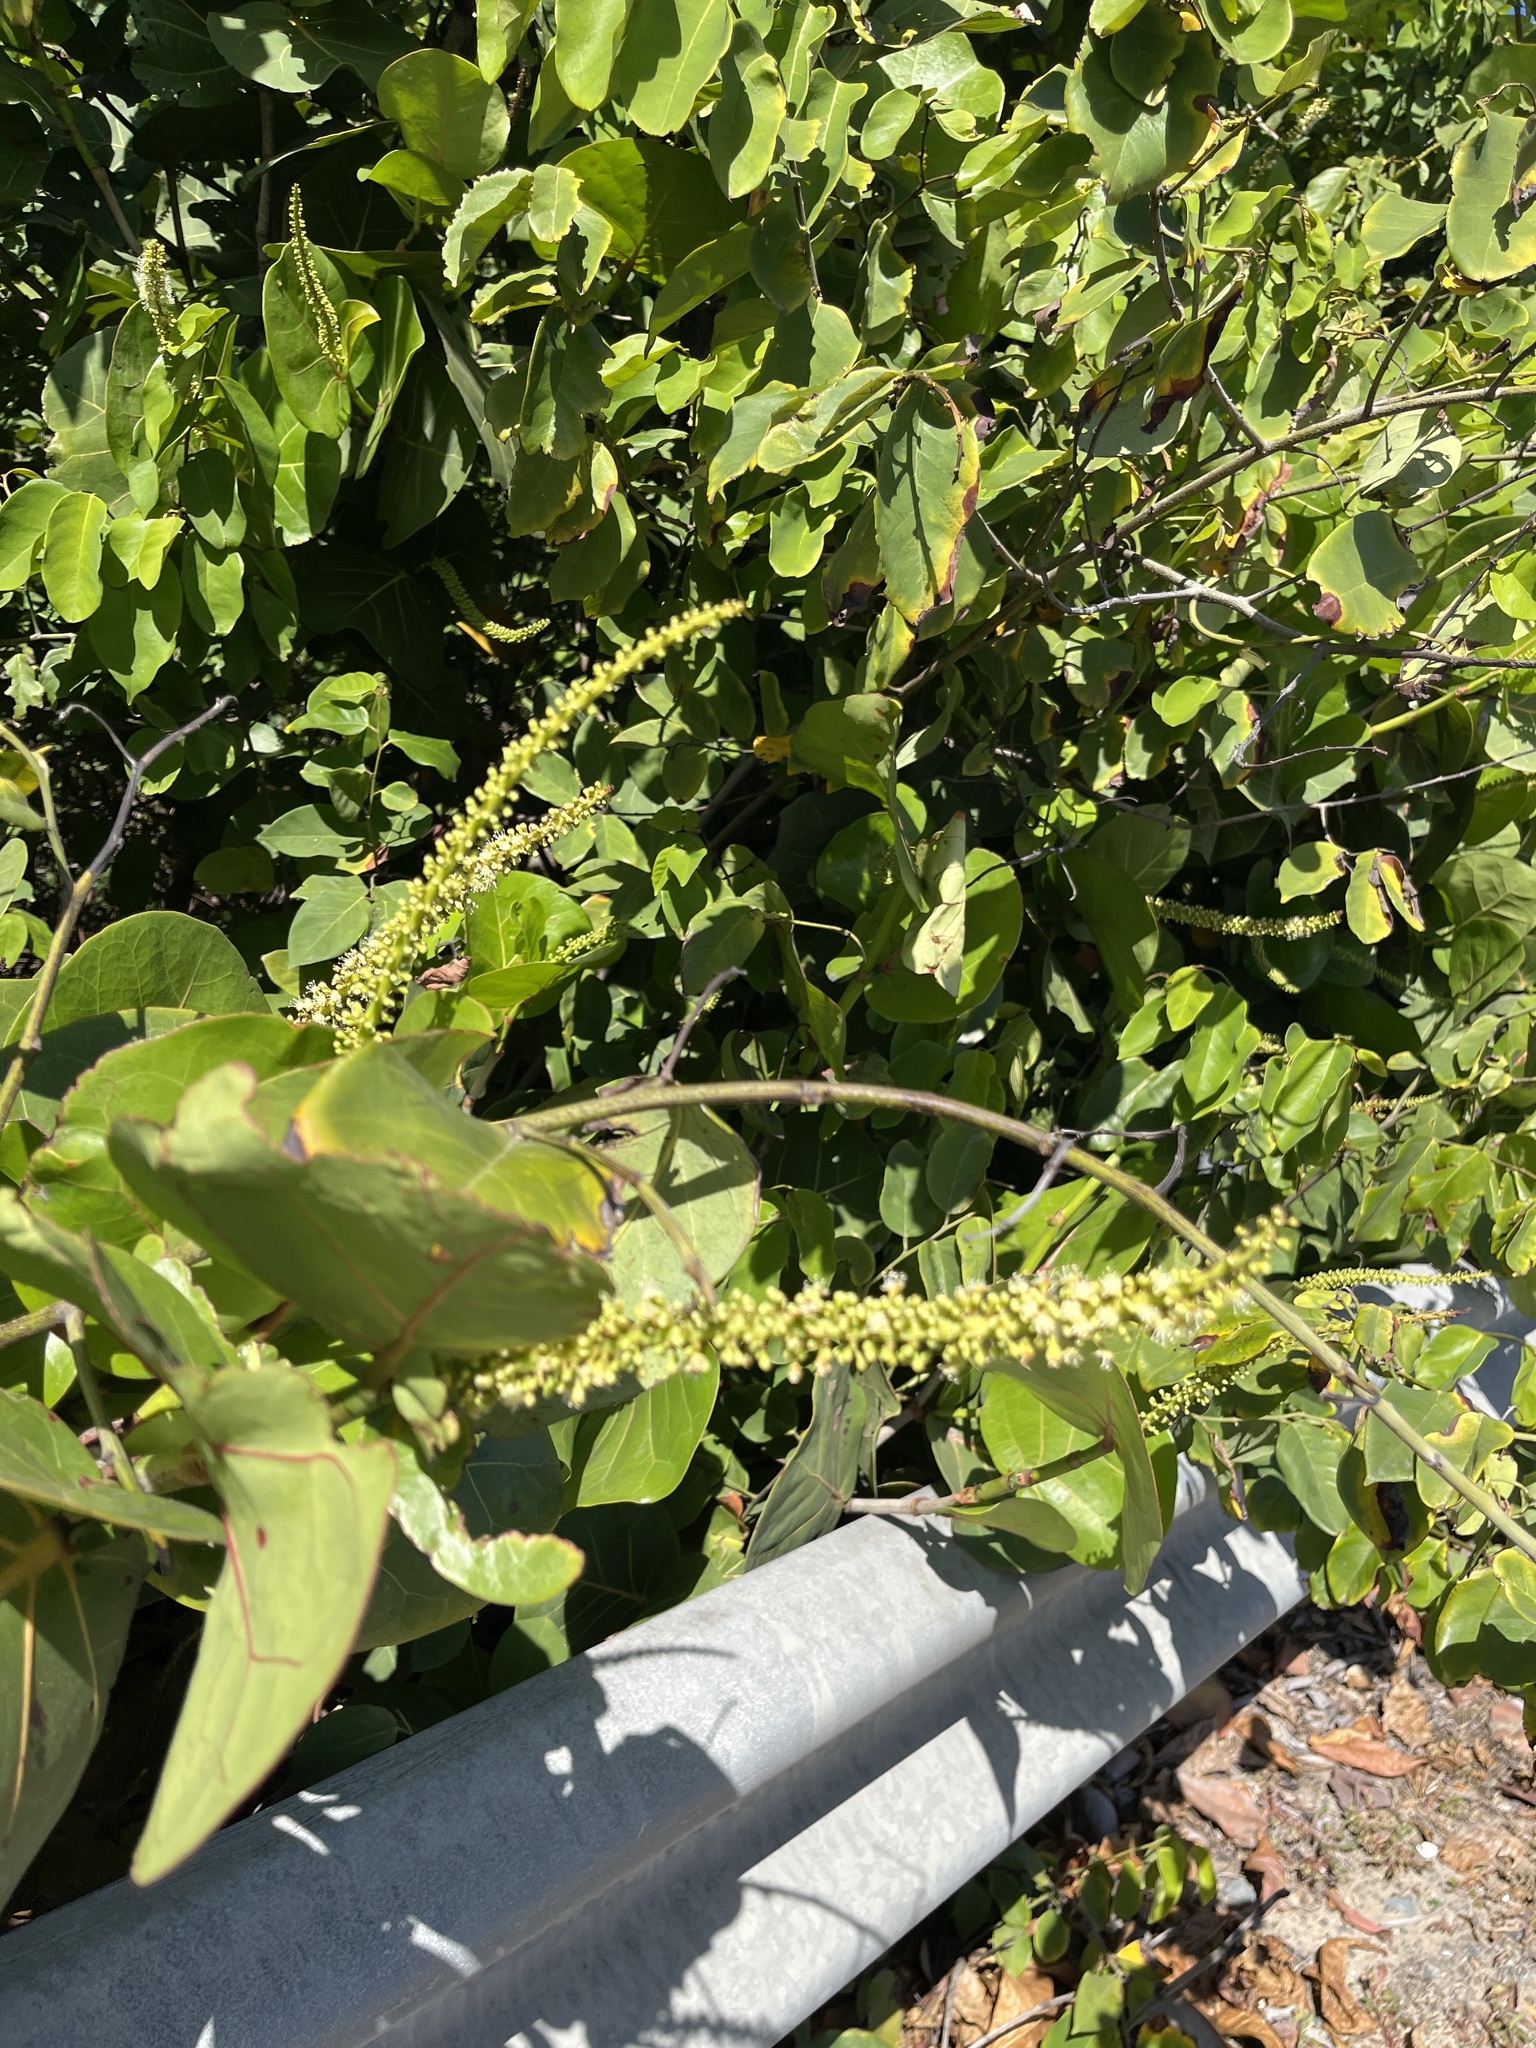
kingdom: Plantae
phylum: Tracheophyta
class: Magnoliopsida
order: Caryophyllales
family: Polygonaceae
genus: Coccoloba
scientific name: Coccoloba uvifera
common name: Seagrape
